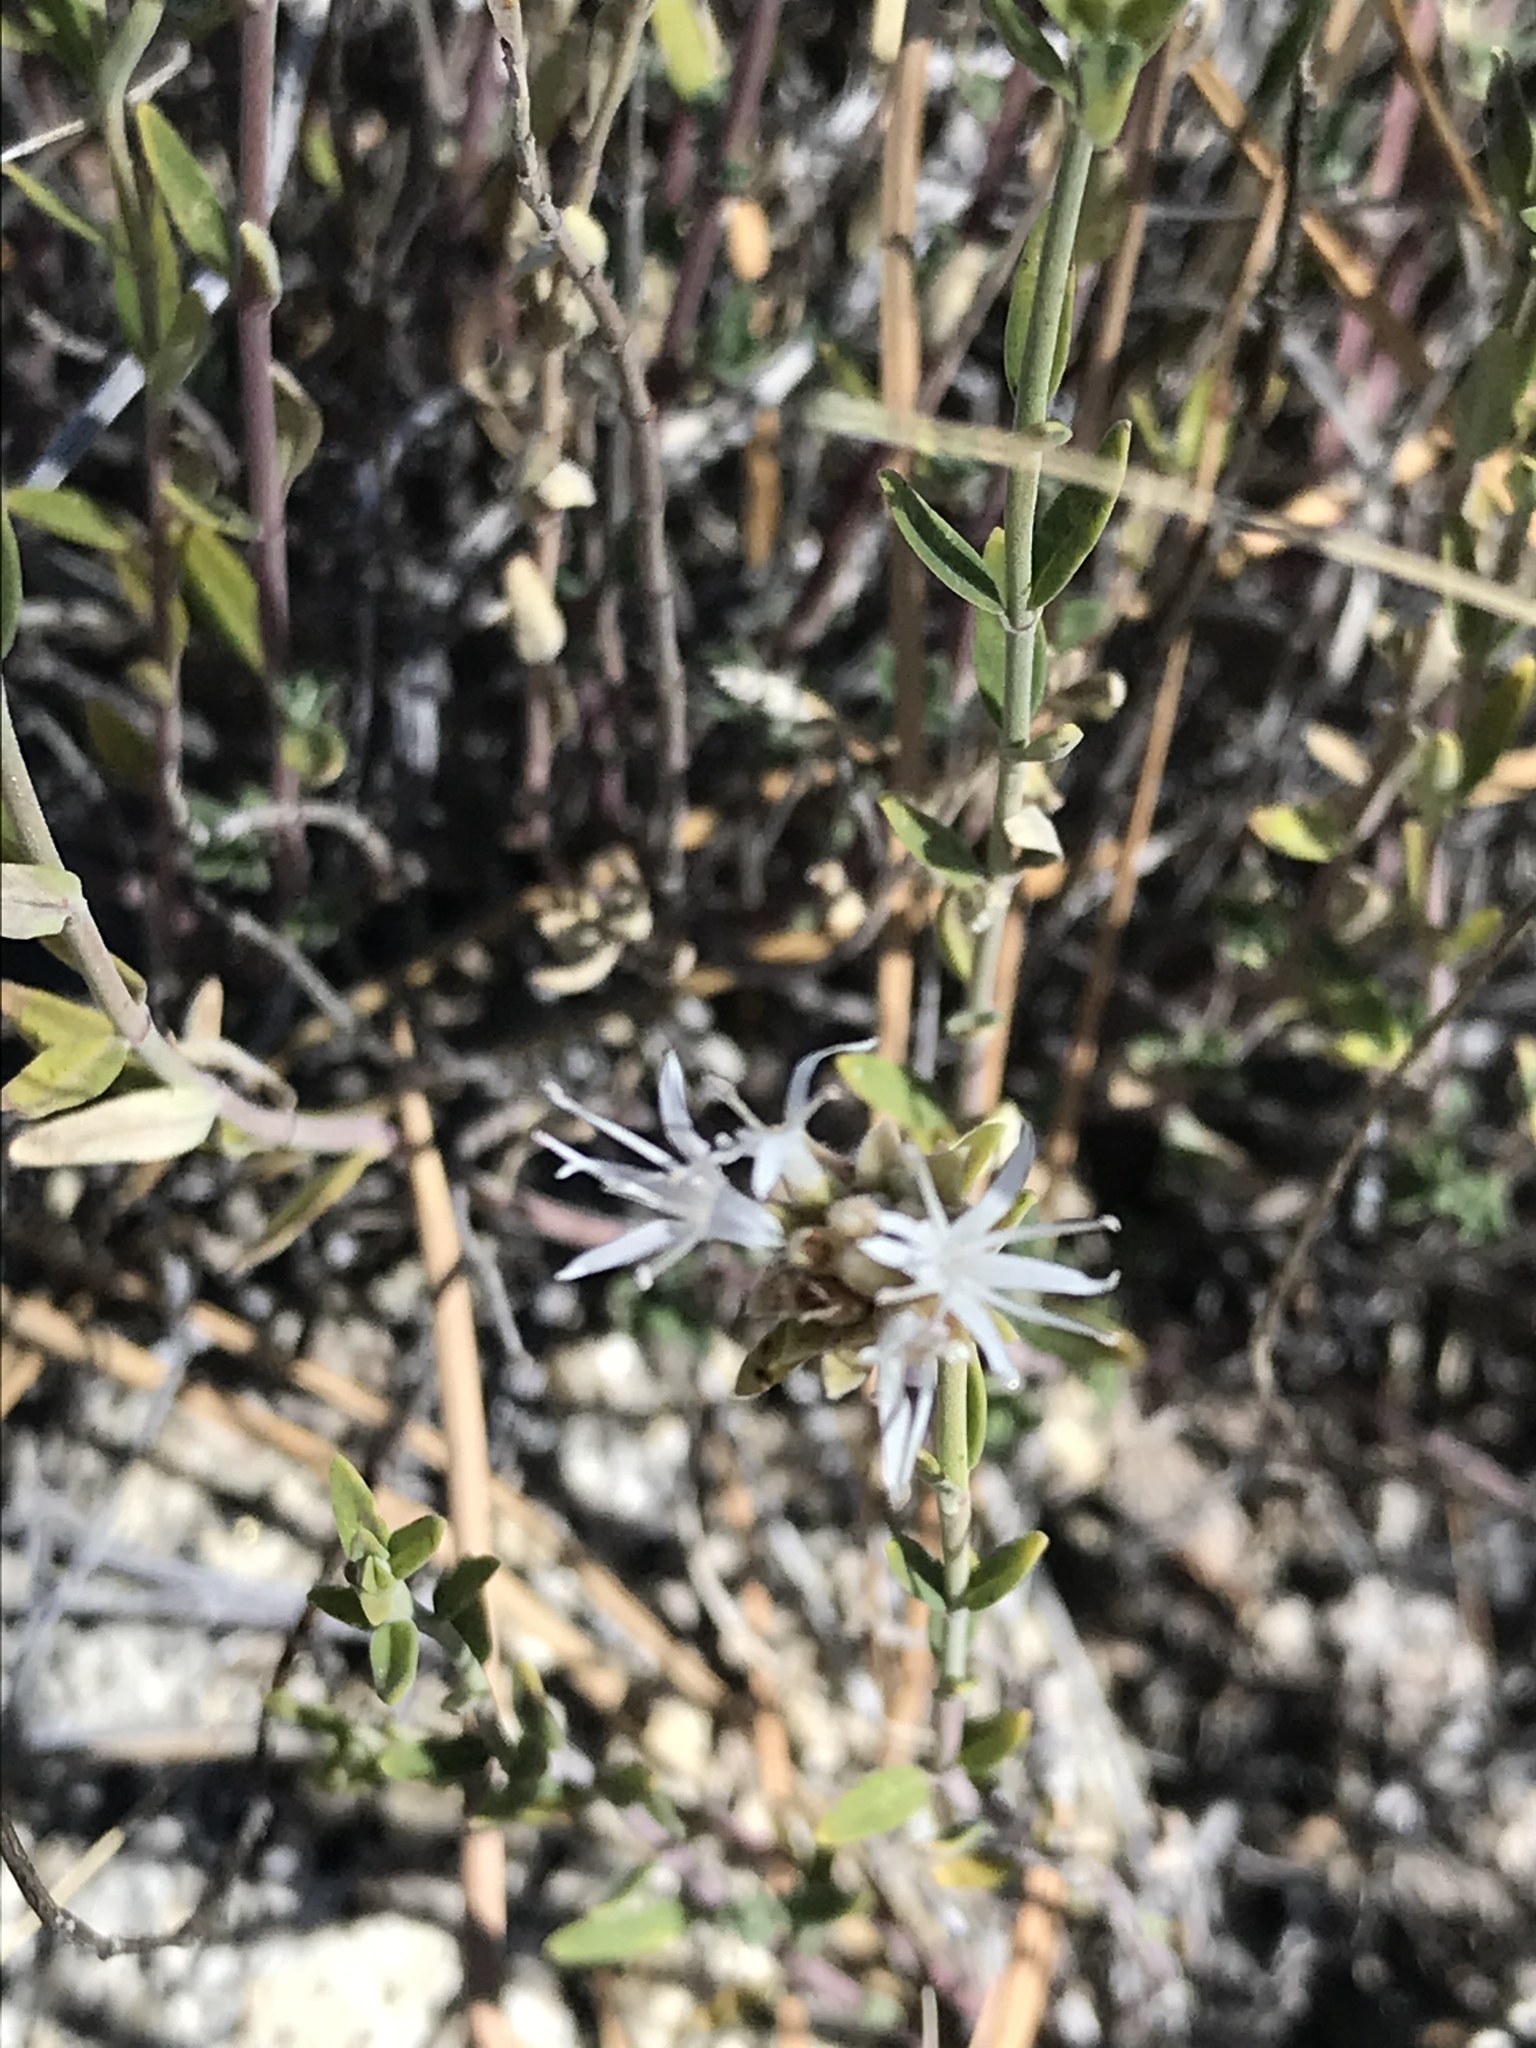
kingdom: Plantae
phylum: Tracheophyta
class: Magnoliopsida
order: Lamiales
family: Lamiaceae
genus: Monardella
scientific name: Monardella linoides
